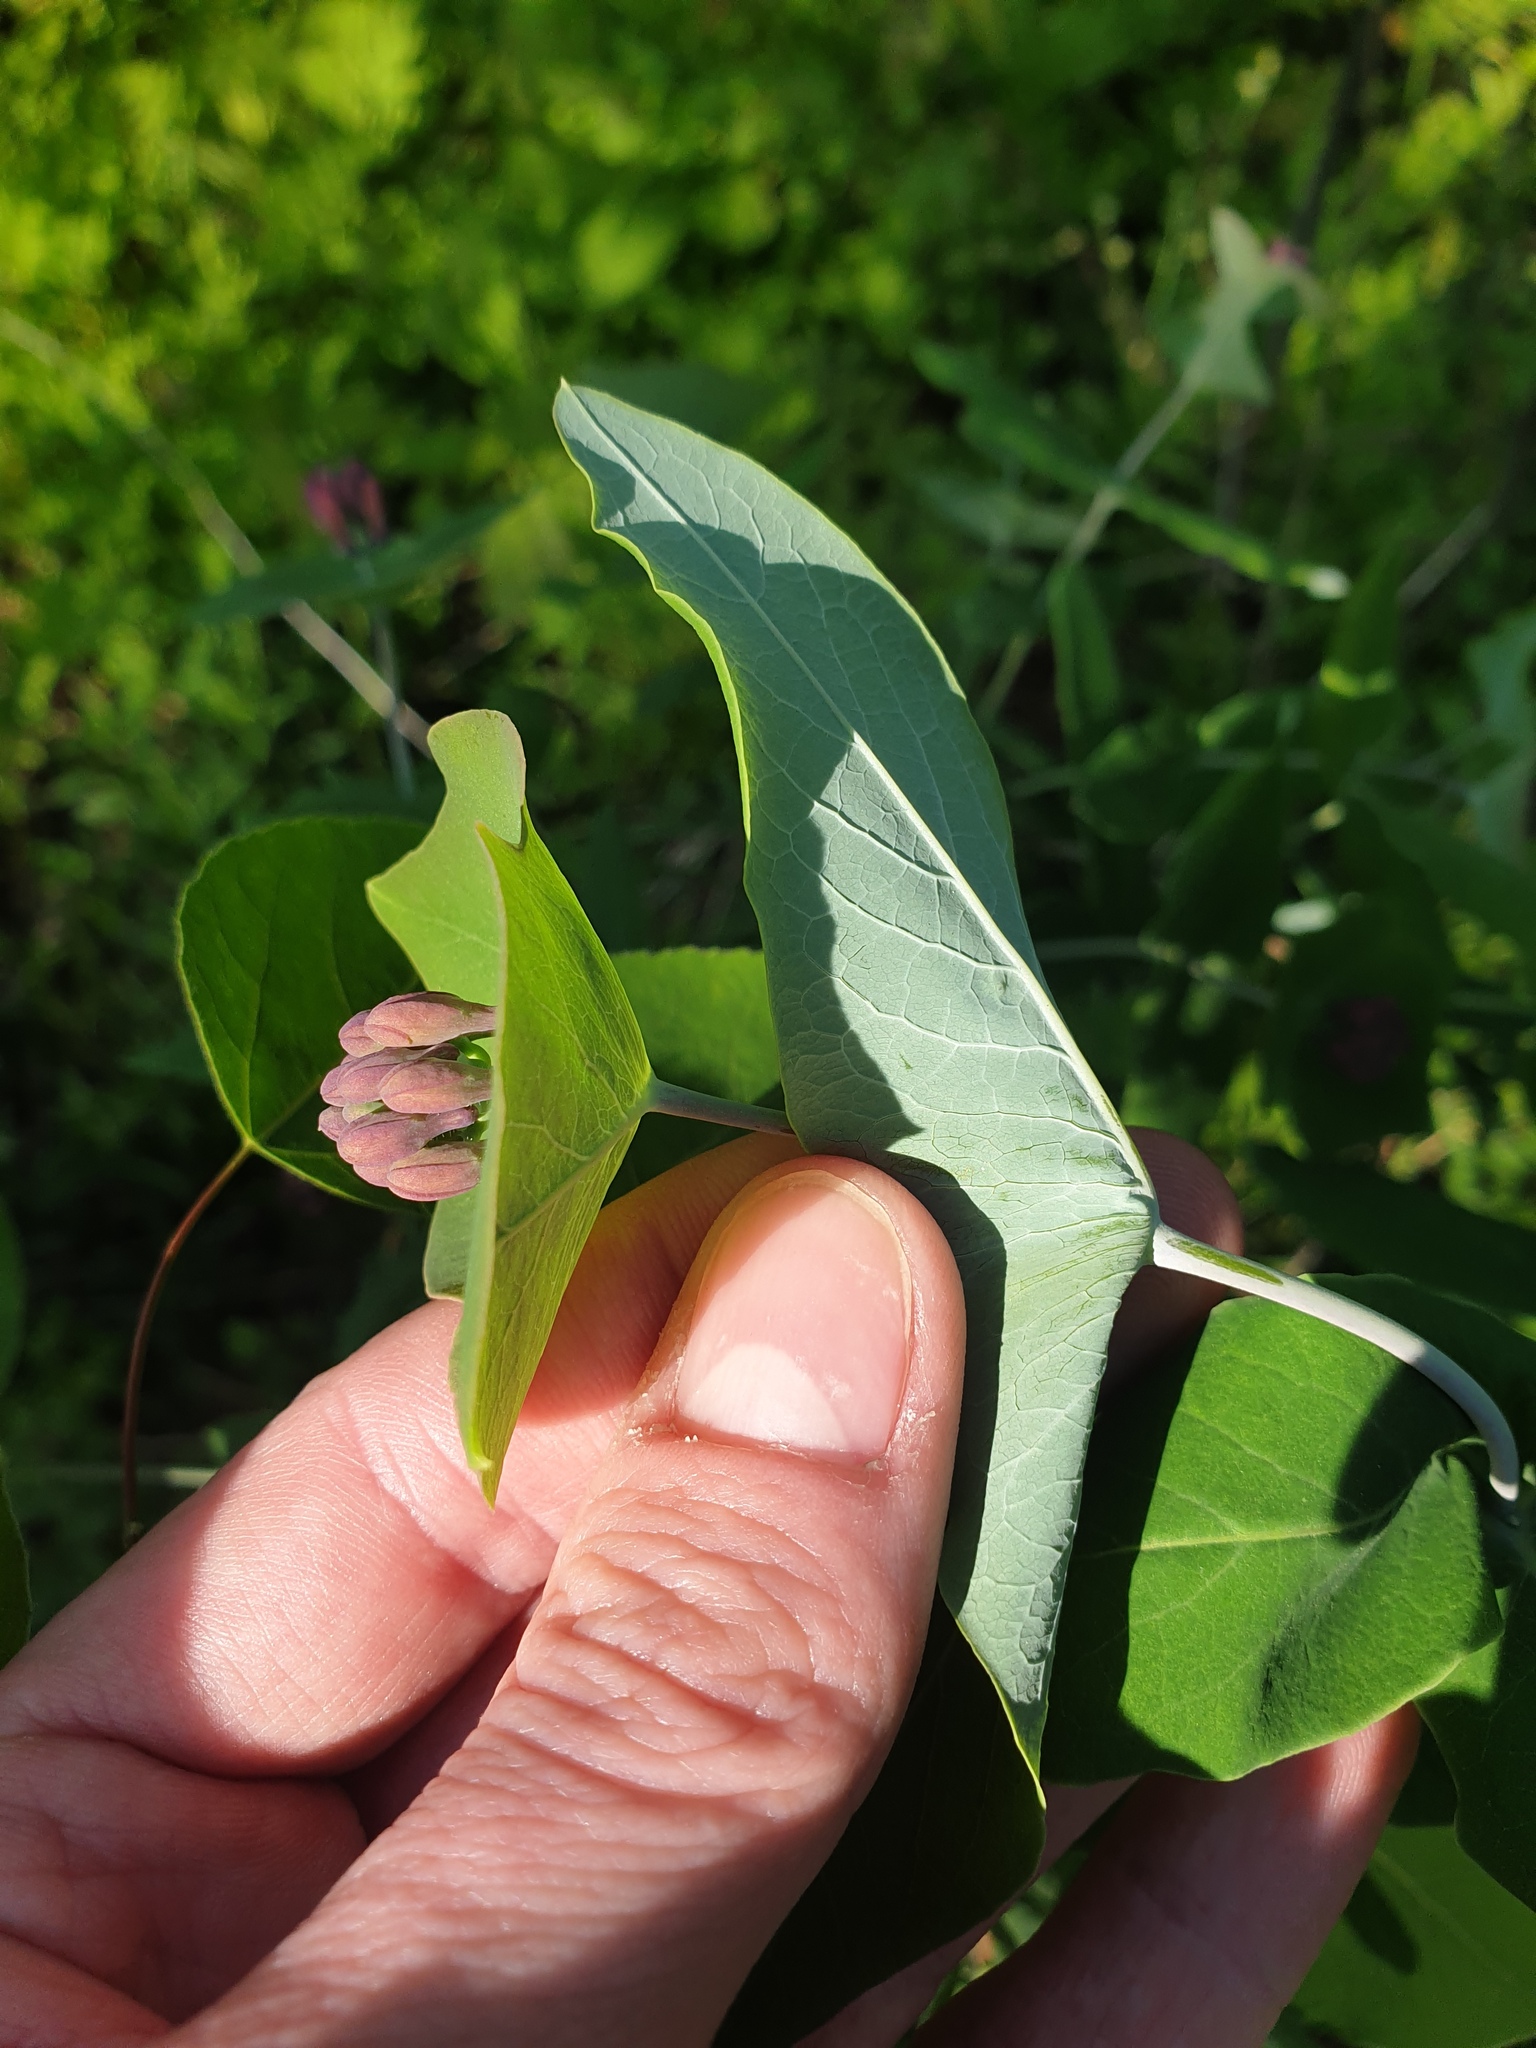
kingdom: Plantae
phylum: Tracheophyta
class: Magnoliopsida
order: Dipsacales
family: Caprifoliaceae
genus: Lonicera
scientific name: Lonicera dioica
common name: Limber honeysuckle
